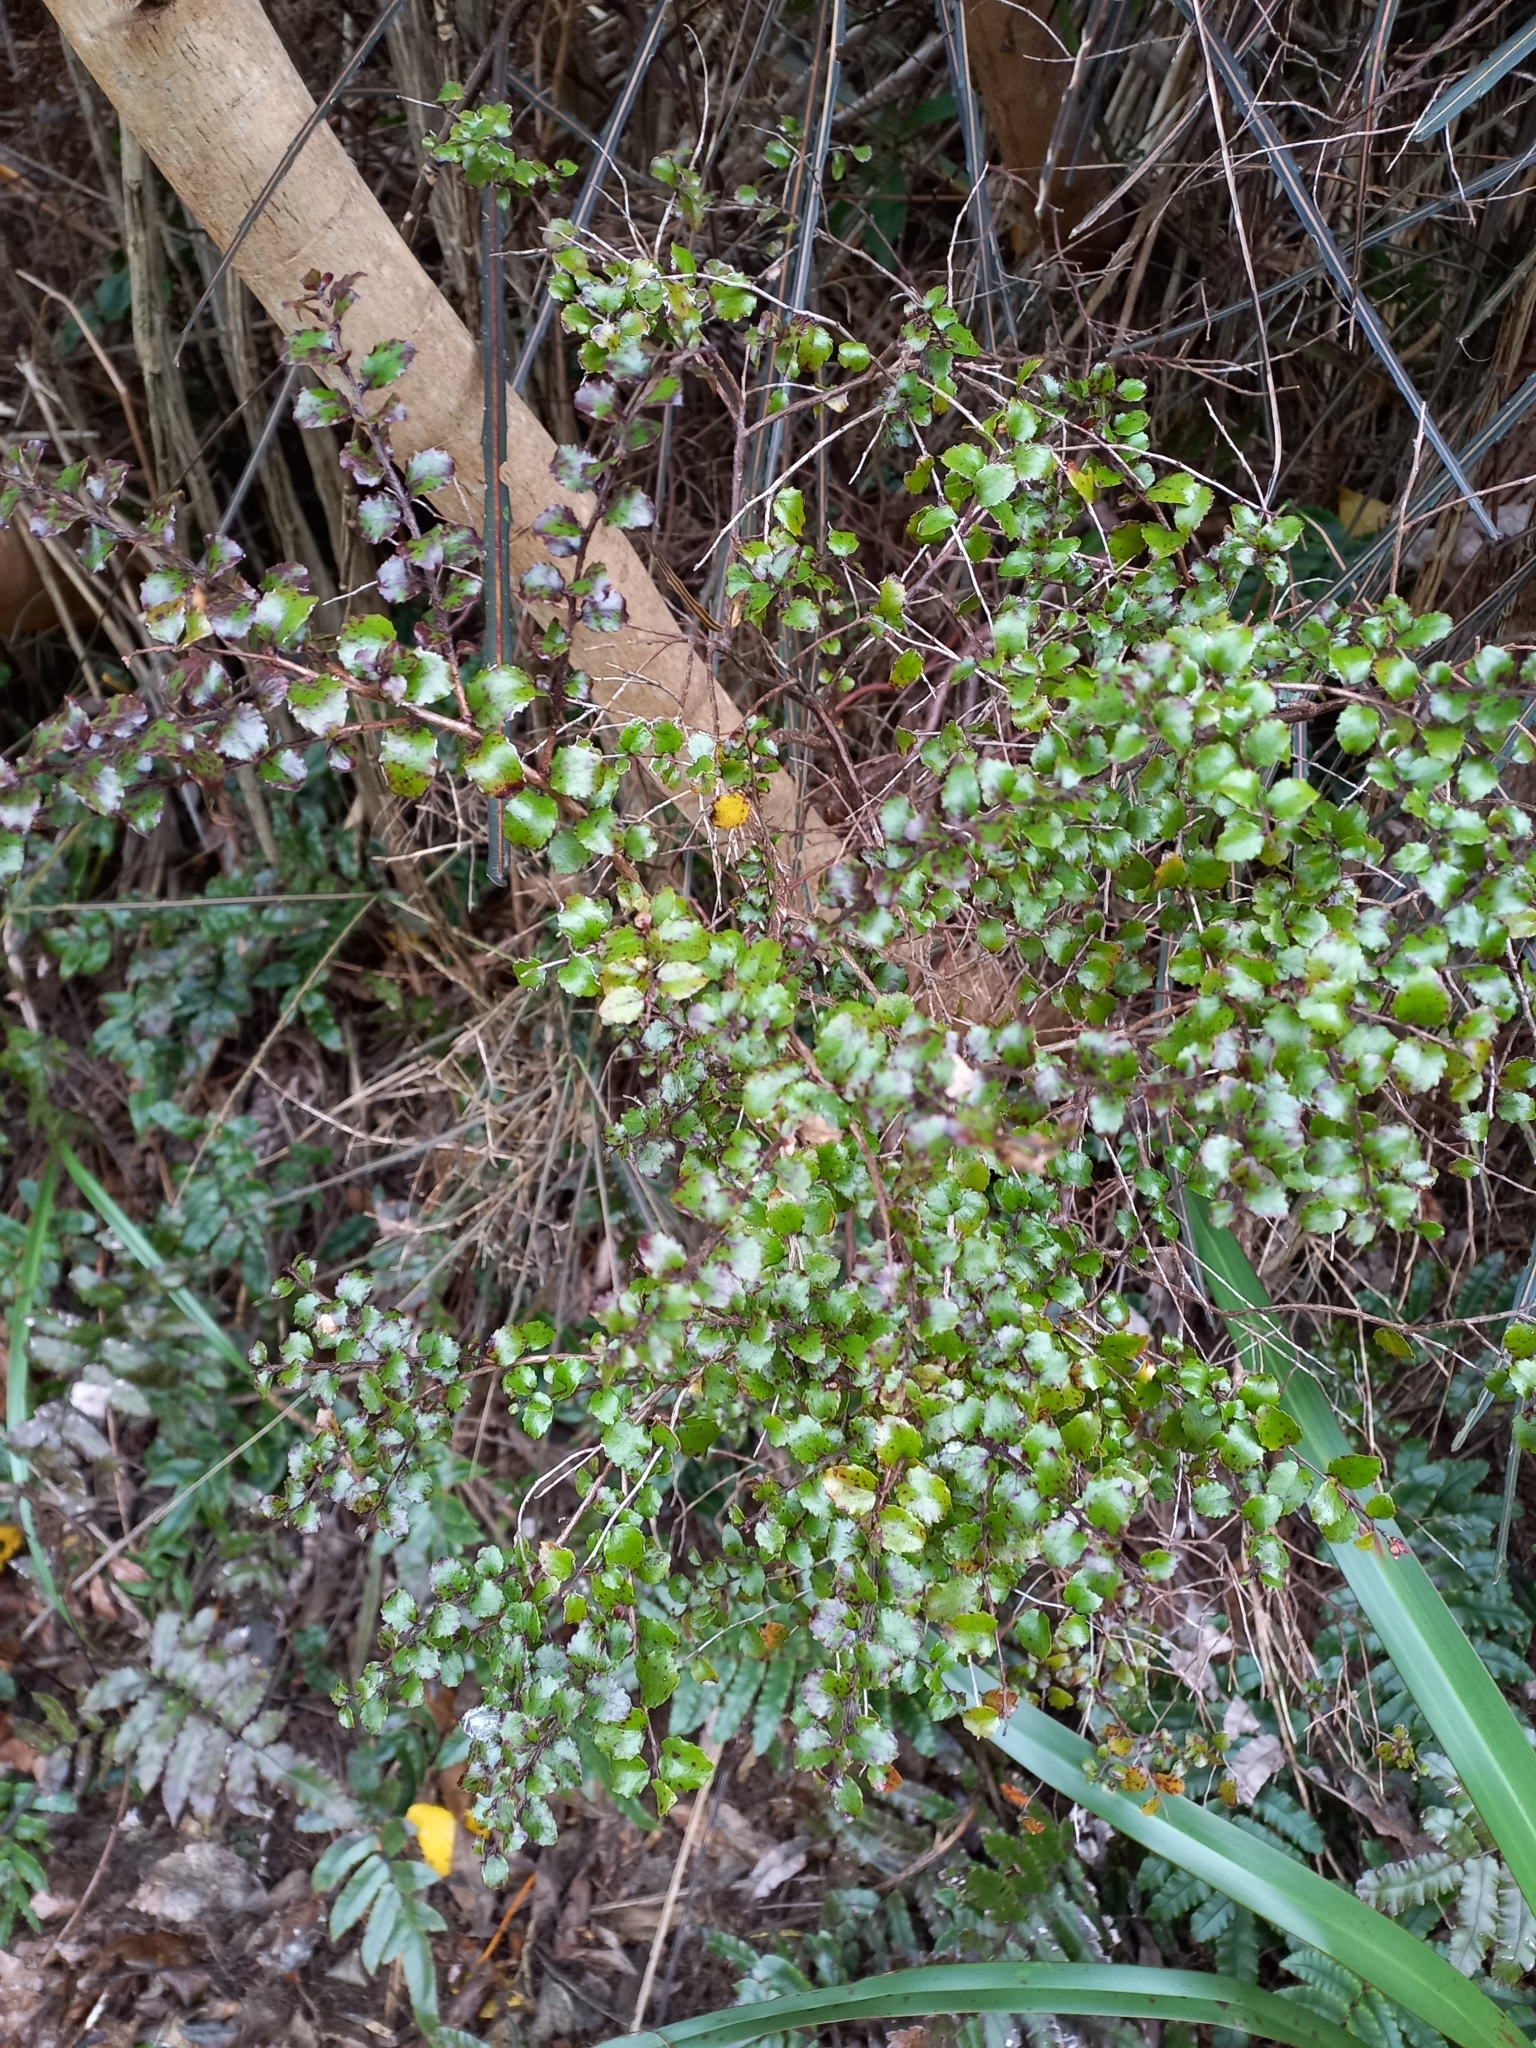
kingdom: Plantae
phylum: Tracheophyta
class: Magnoliopsida
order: Ericales
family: Ericaceae
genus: Gaultheria
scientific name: Gaultheria antipoda
